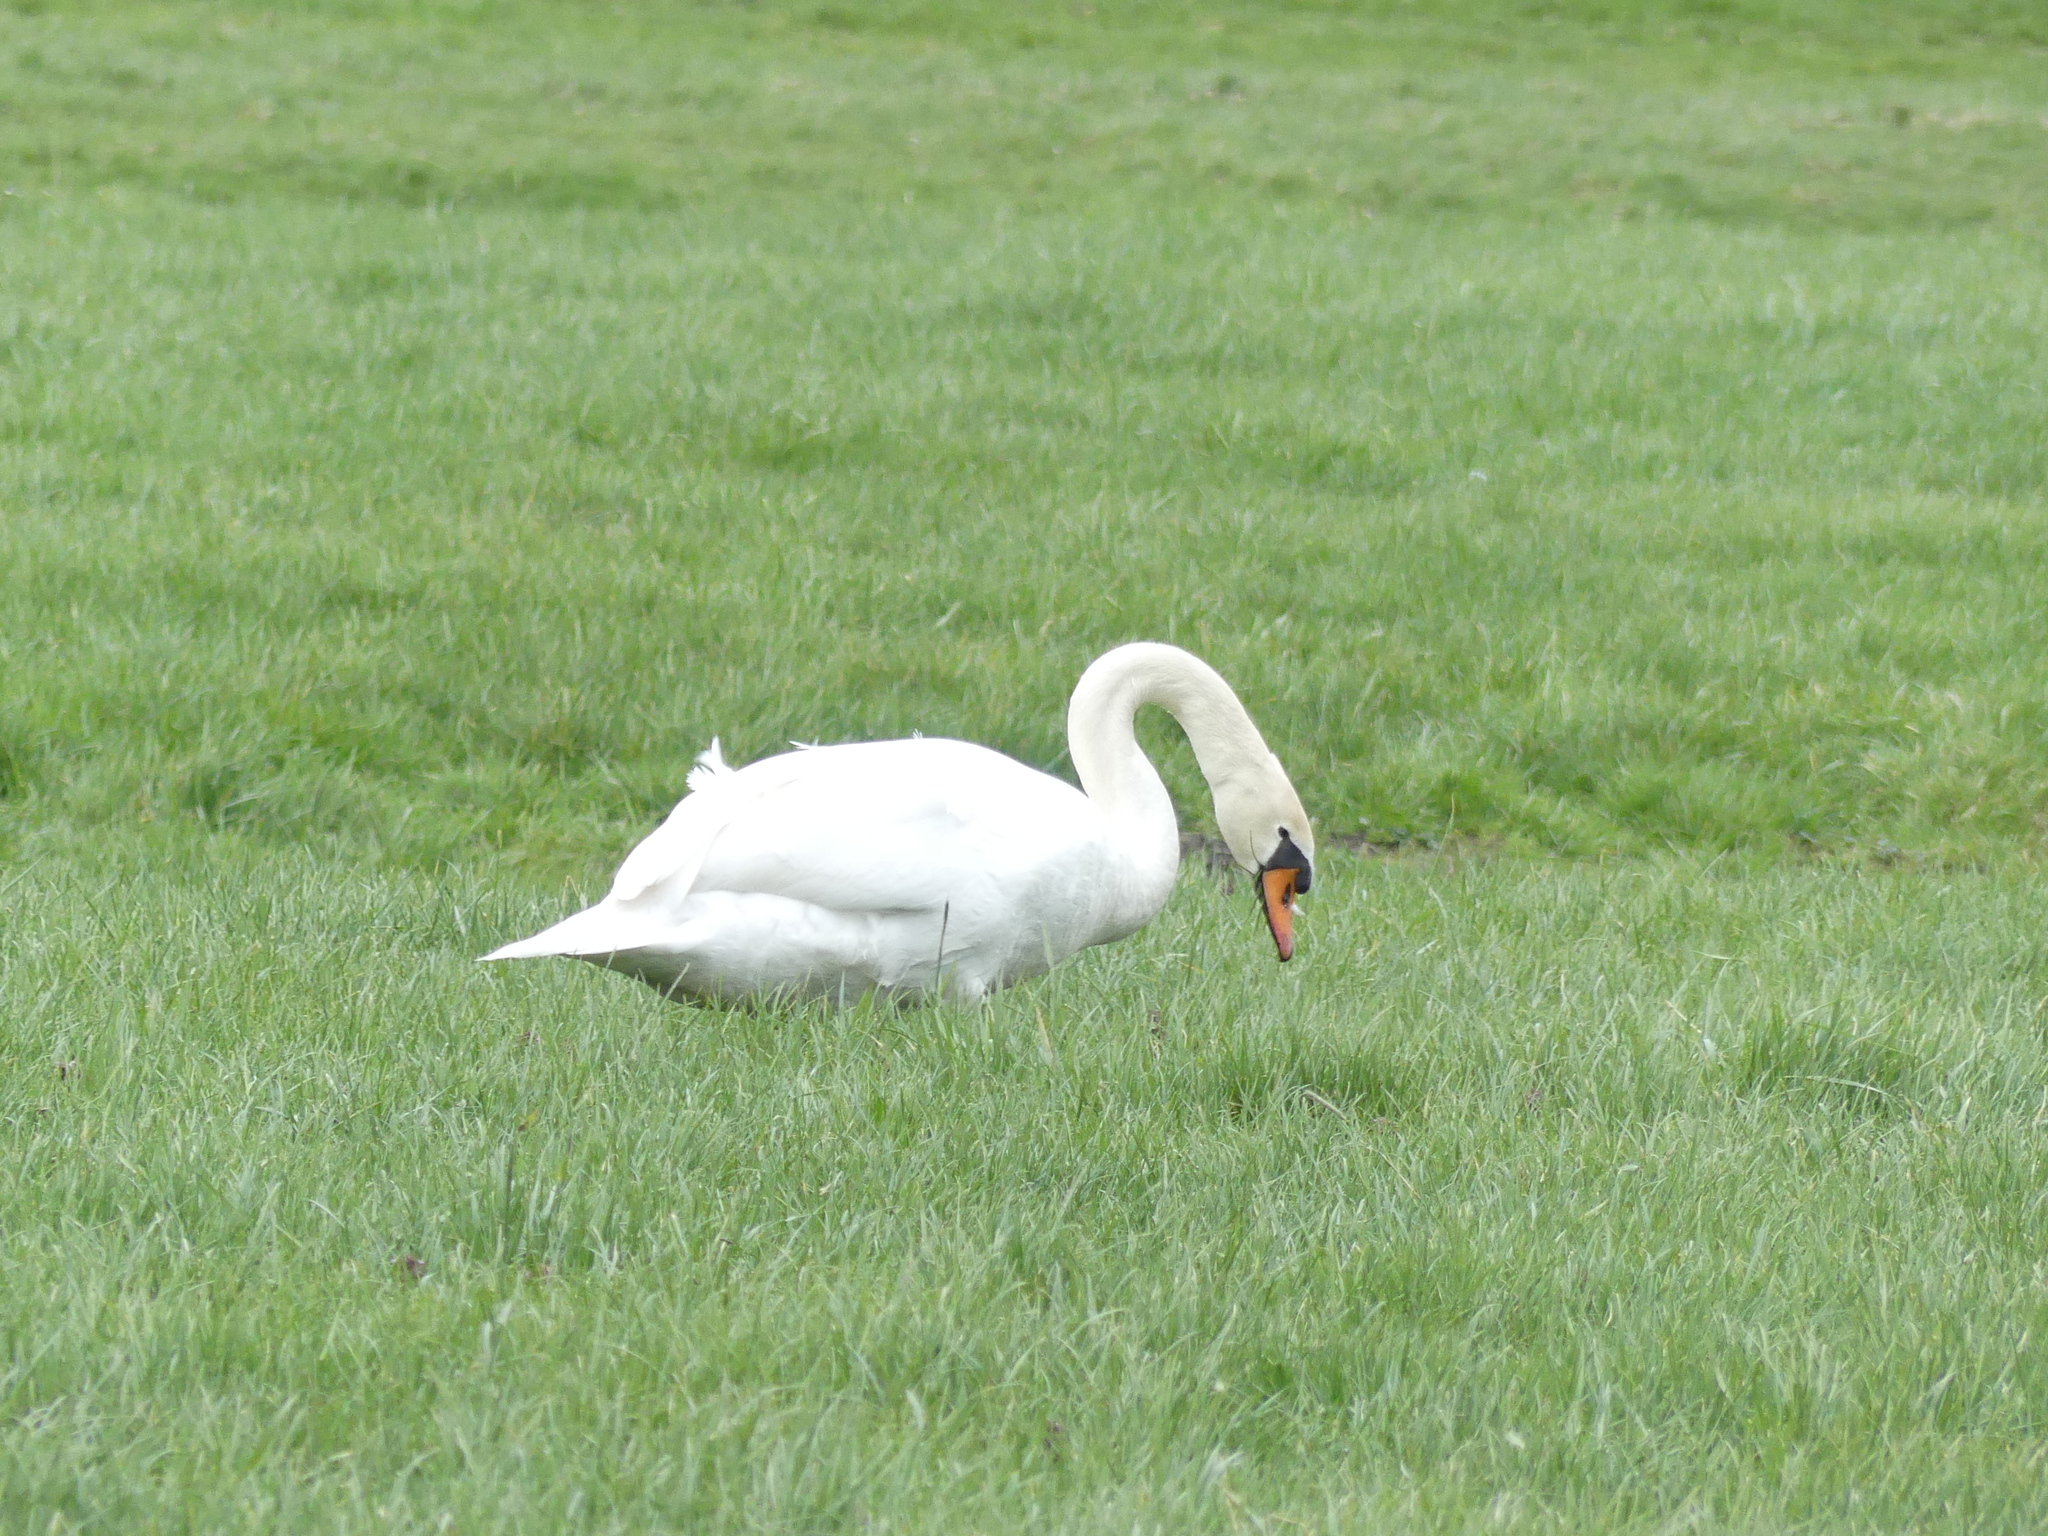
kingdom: Animalia
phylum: Chordata
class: Aves
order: Anseriformes
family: Anatidae
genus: Cygnus
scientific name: Cygnus olor
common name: Mute swan
